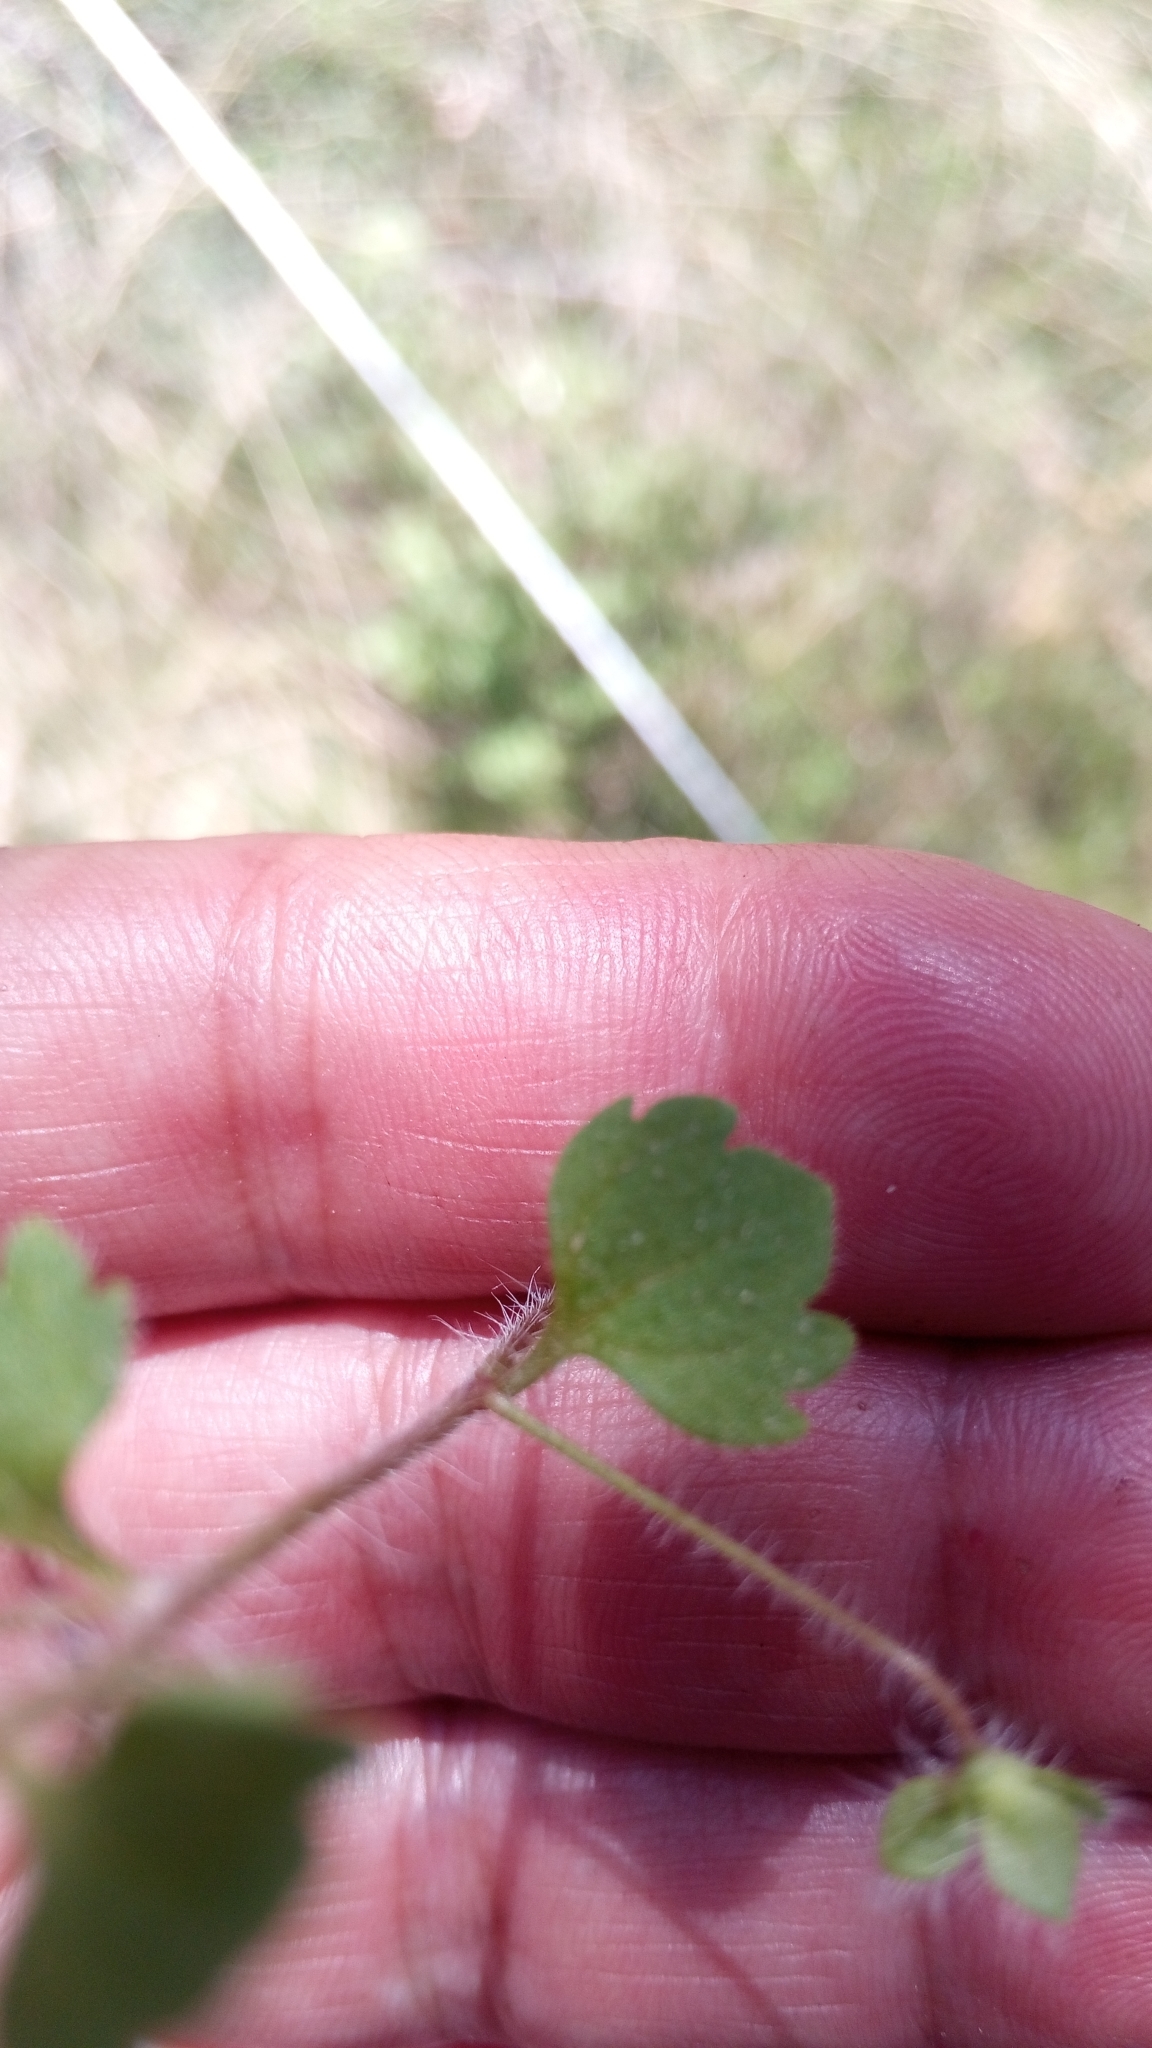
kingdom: Plantae
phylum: Tracheophyta
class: Magnoliopsida
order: Lamiales
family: Plantaginaceae
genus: Veronica
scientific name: Veronica cymbalaria
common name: Pale speedwell
